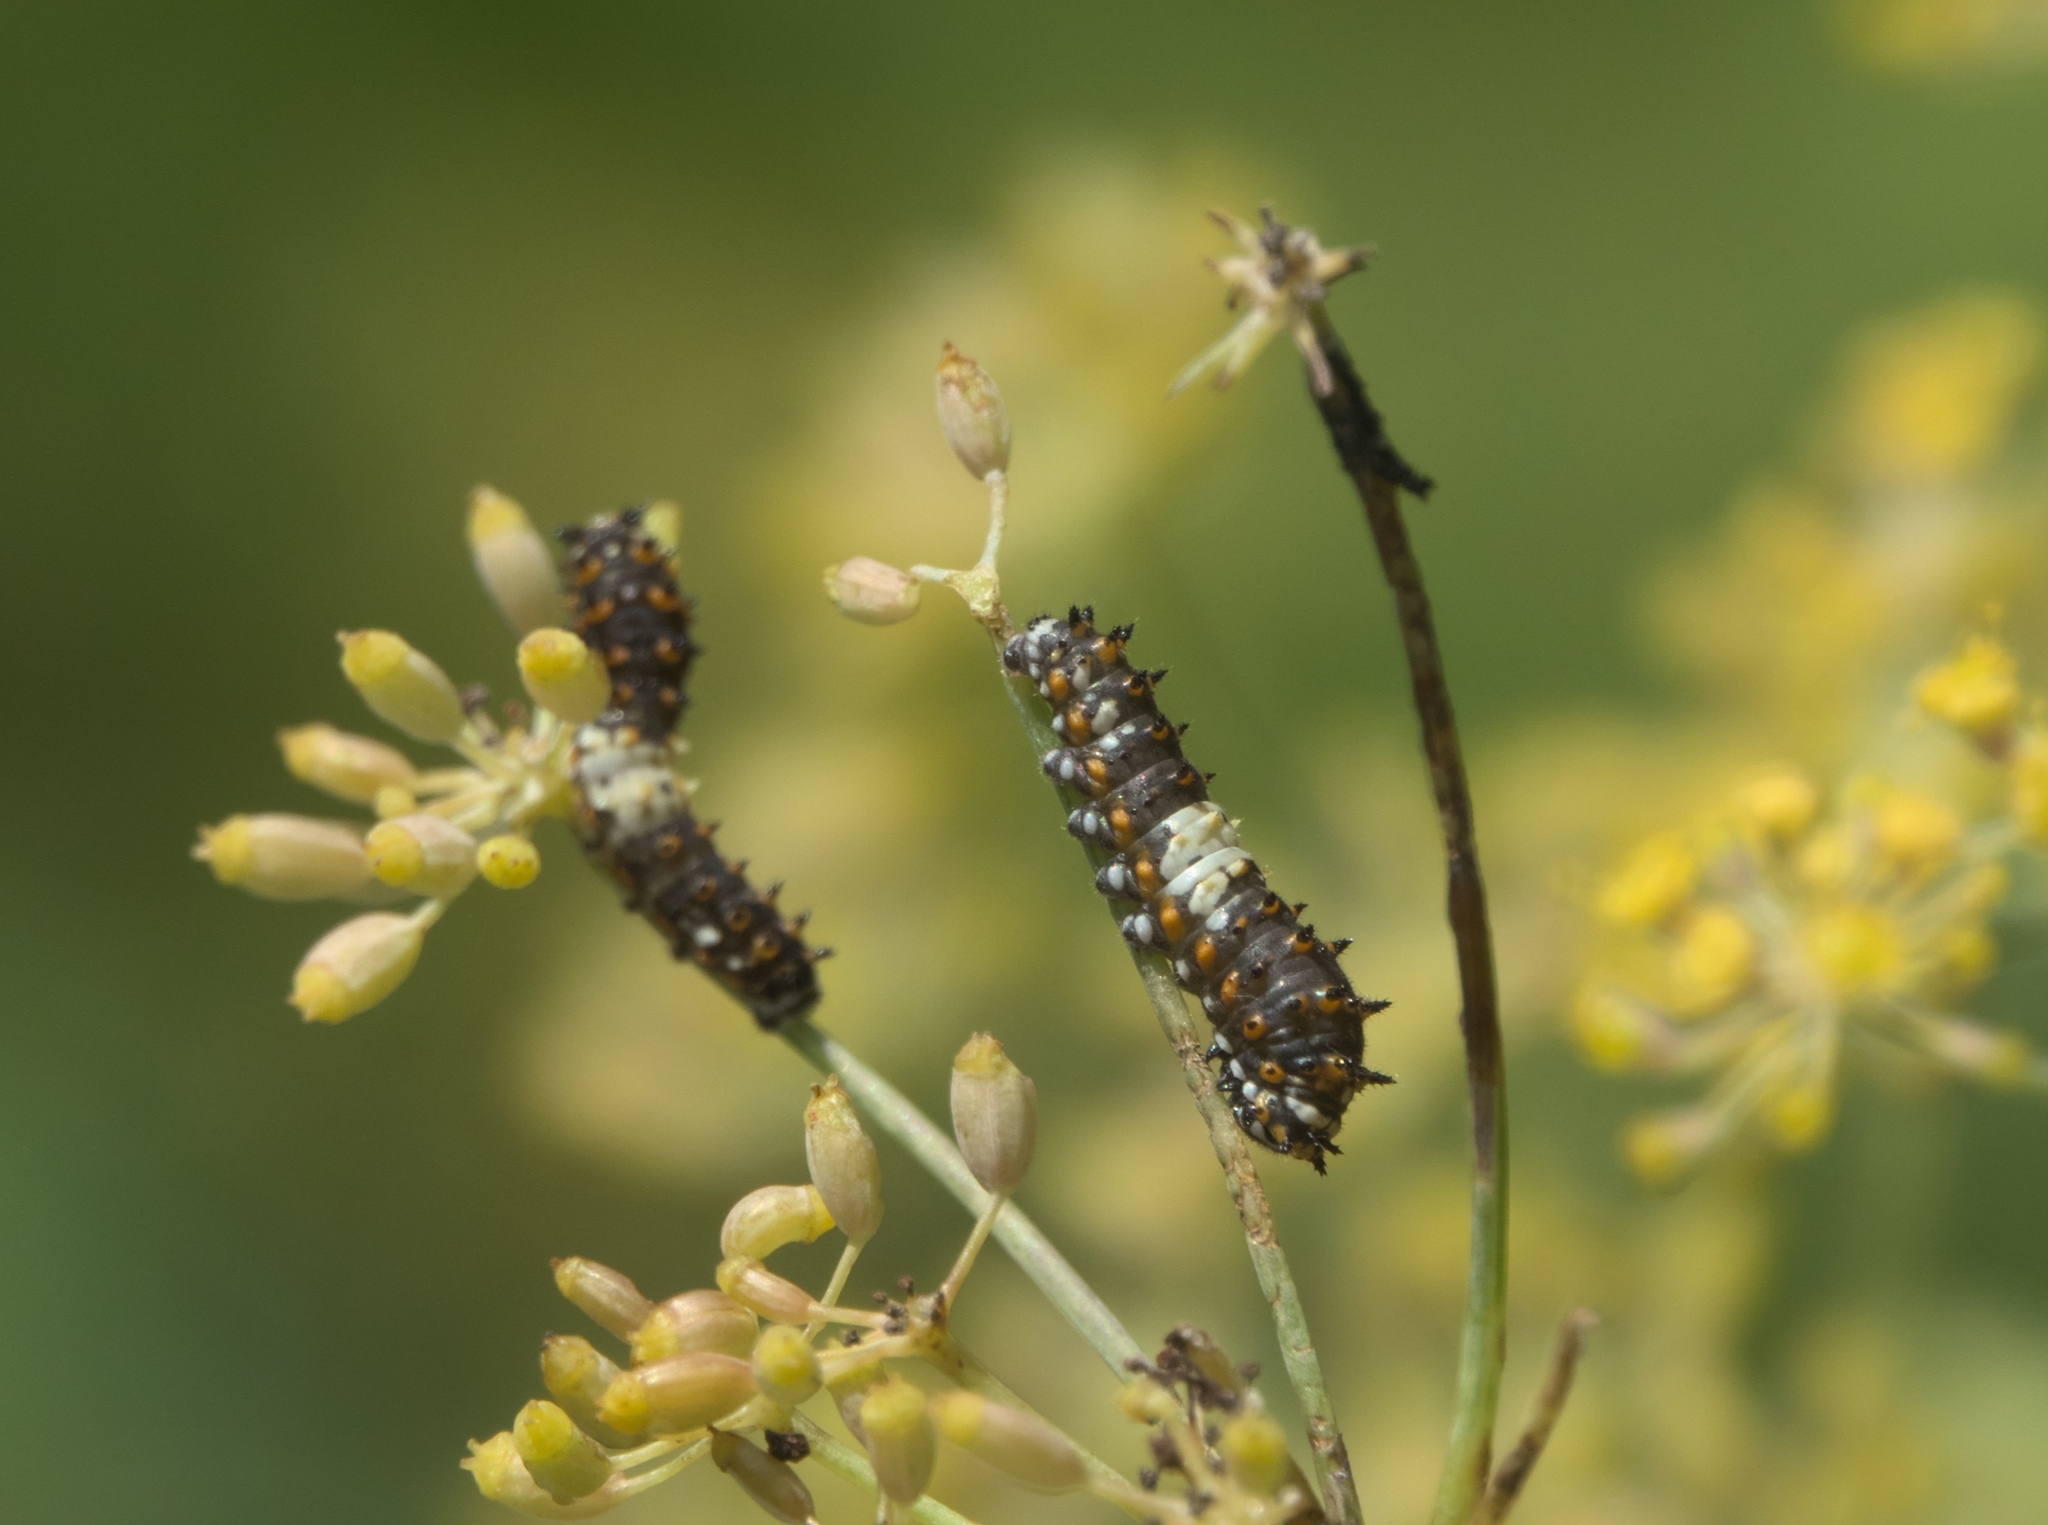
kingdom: Animalia
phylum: Arthropoda
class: Insecta
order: Lepidoptera
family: Papilionidae
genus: Papilio
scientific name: Papilio polyxenes
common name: Black swallowtail
